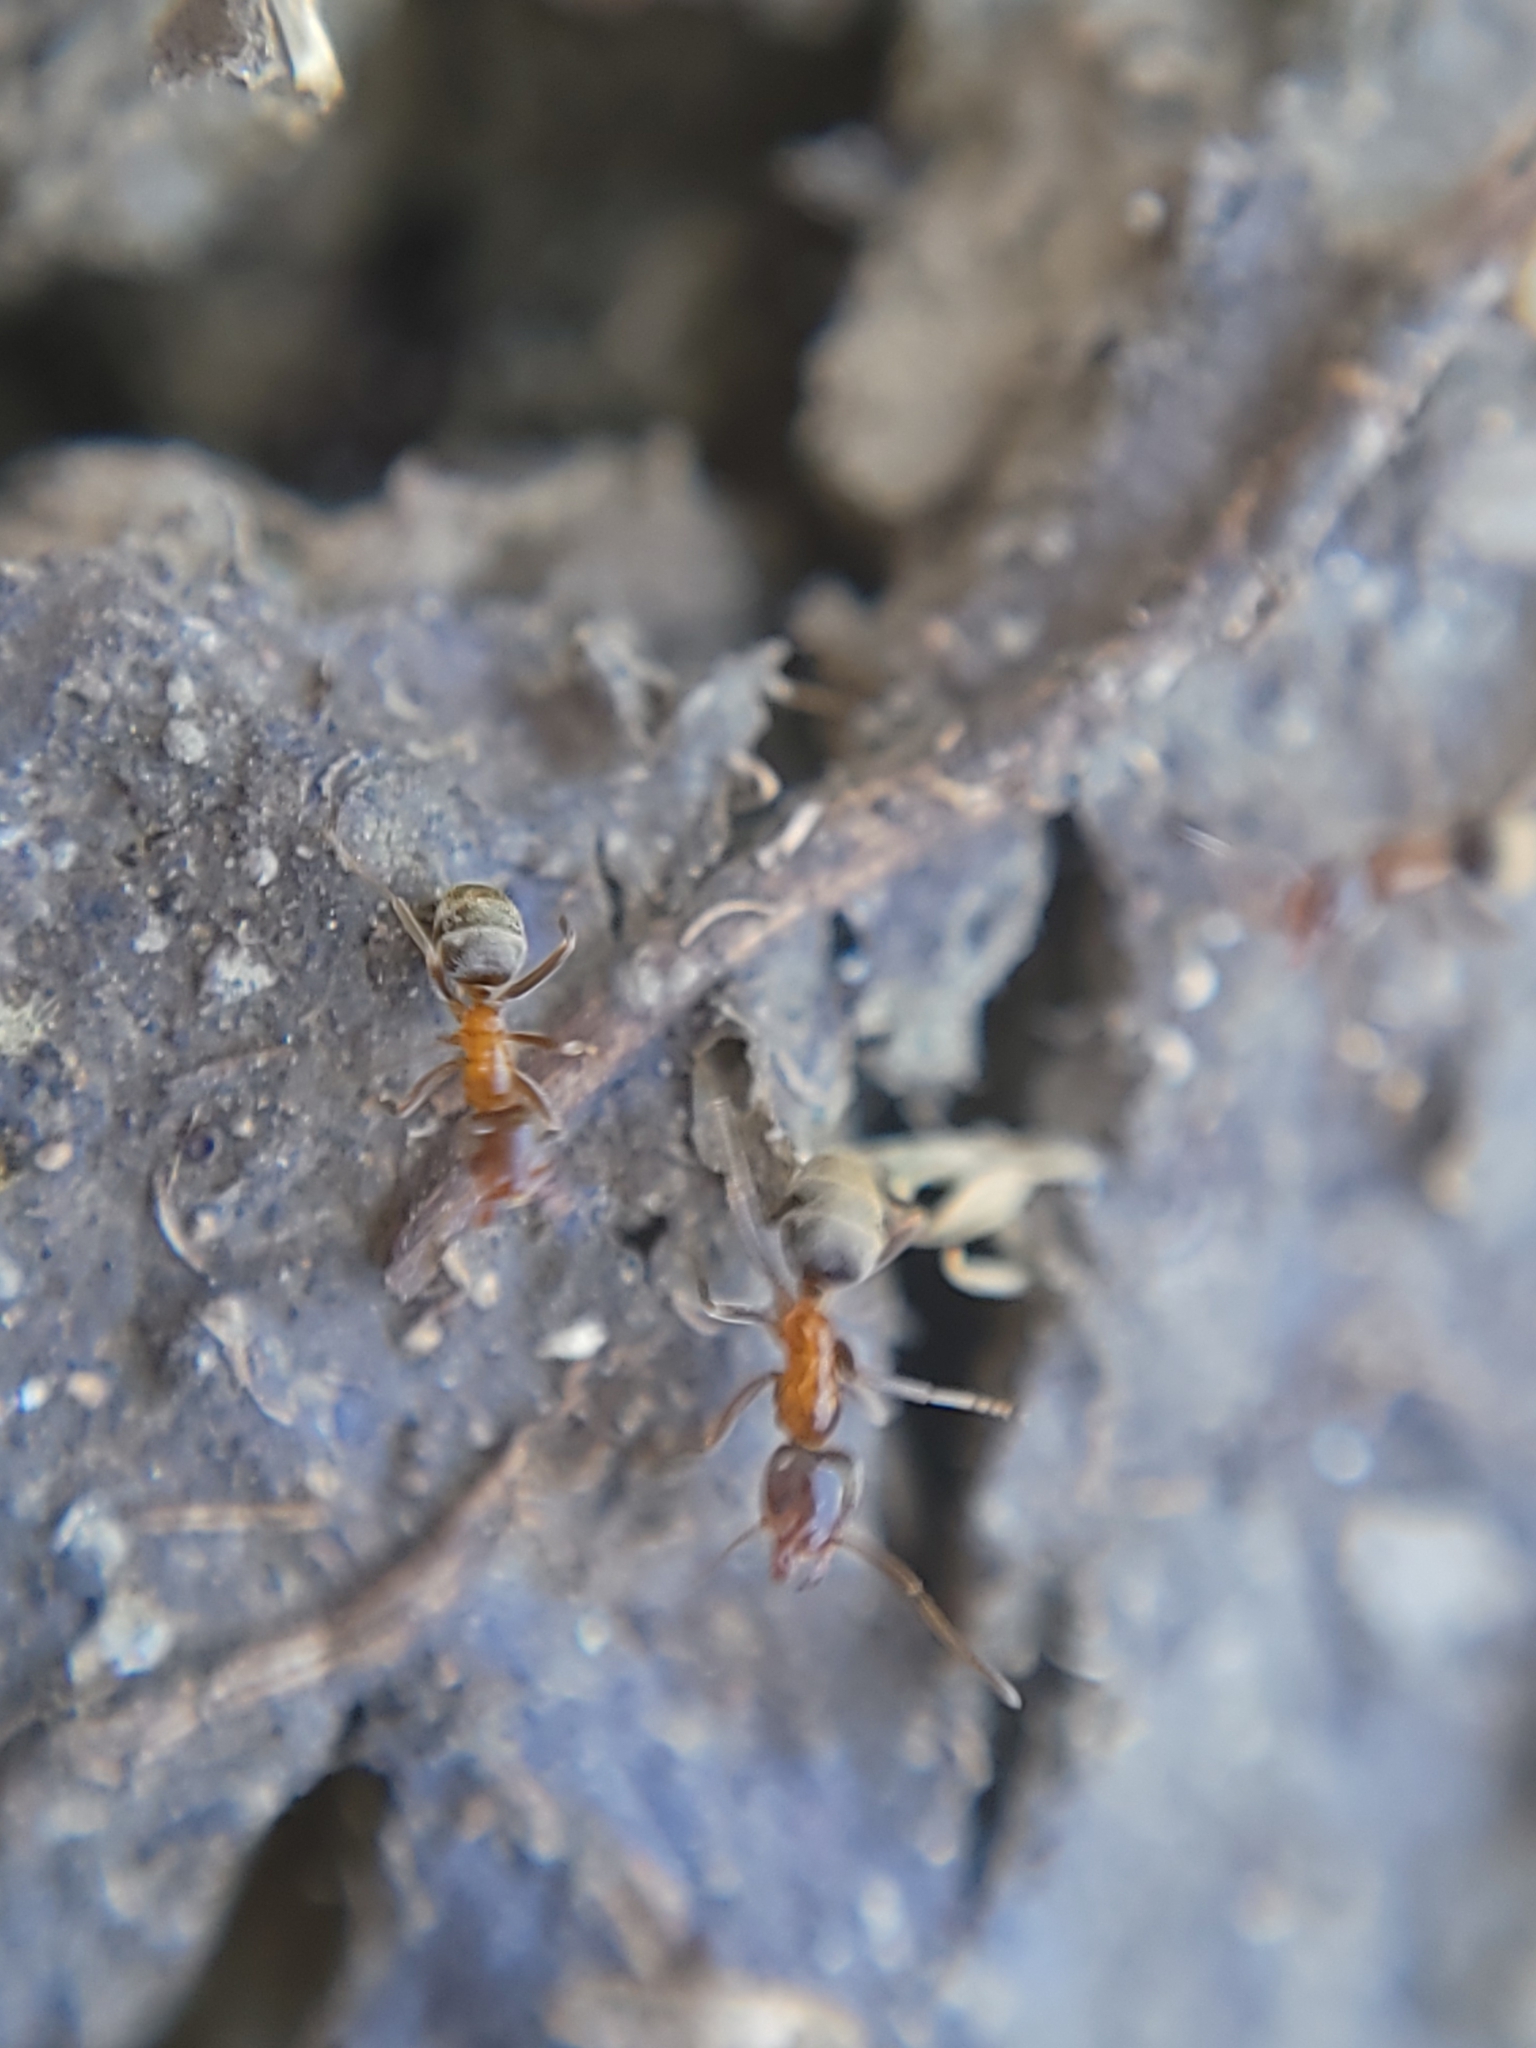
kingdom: Animalia
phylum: Arthropoda
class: Insecta
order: Hymenoptera
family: Formicidae
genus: Liometopum
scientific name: Liometopum occidentale
